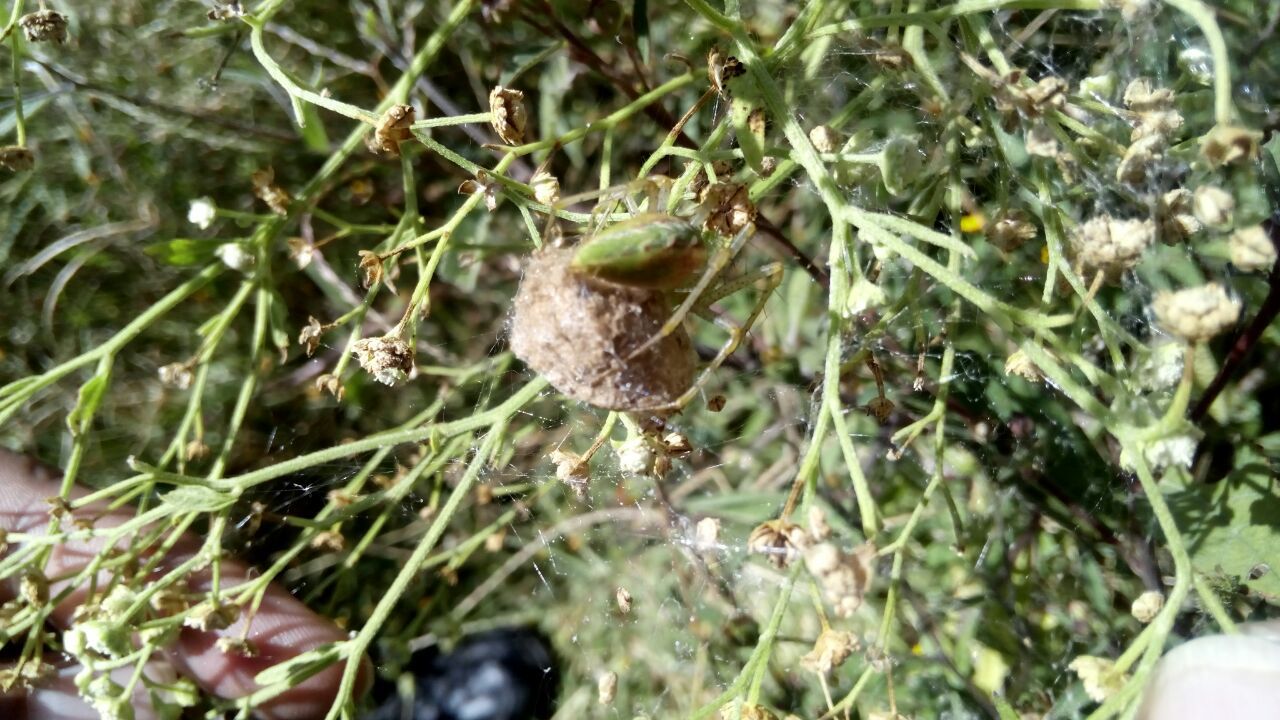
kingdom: Animalia
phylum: Arthropoda
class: Arachnida
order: Araneae
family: Oxyopidae
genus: Peucetia
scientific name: Peucetia viridans
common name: Lynx spiders
